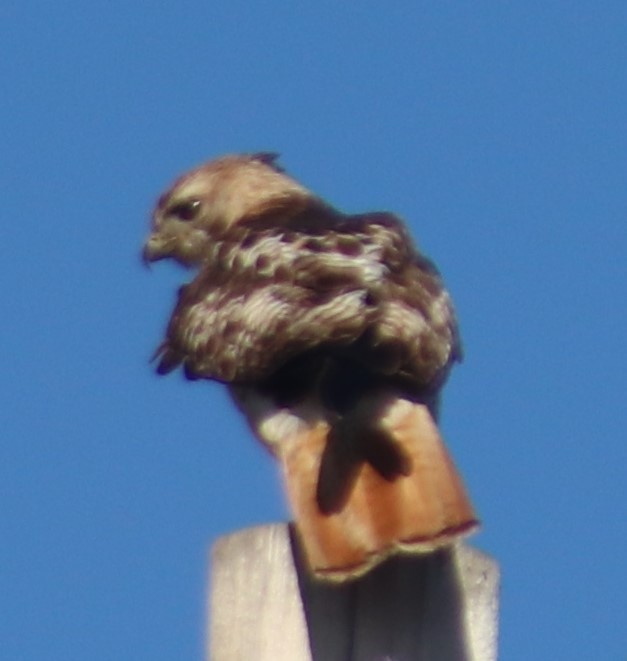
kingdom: Animalia
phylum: Chordata
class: Aves
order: Accipitriformes
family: Accipitridae
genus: Buteo
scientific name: Buteo jamaicensis
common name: Red-tailed hawk
